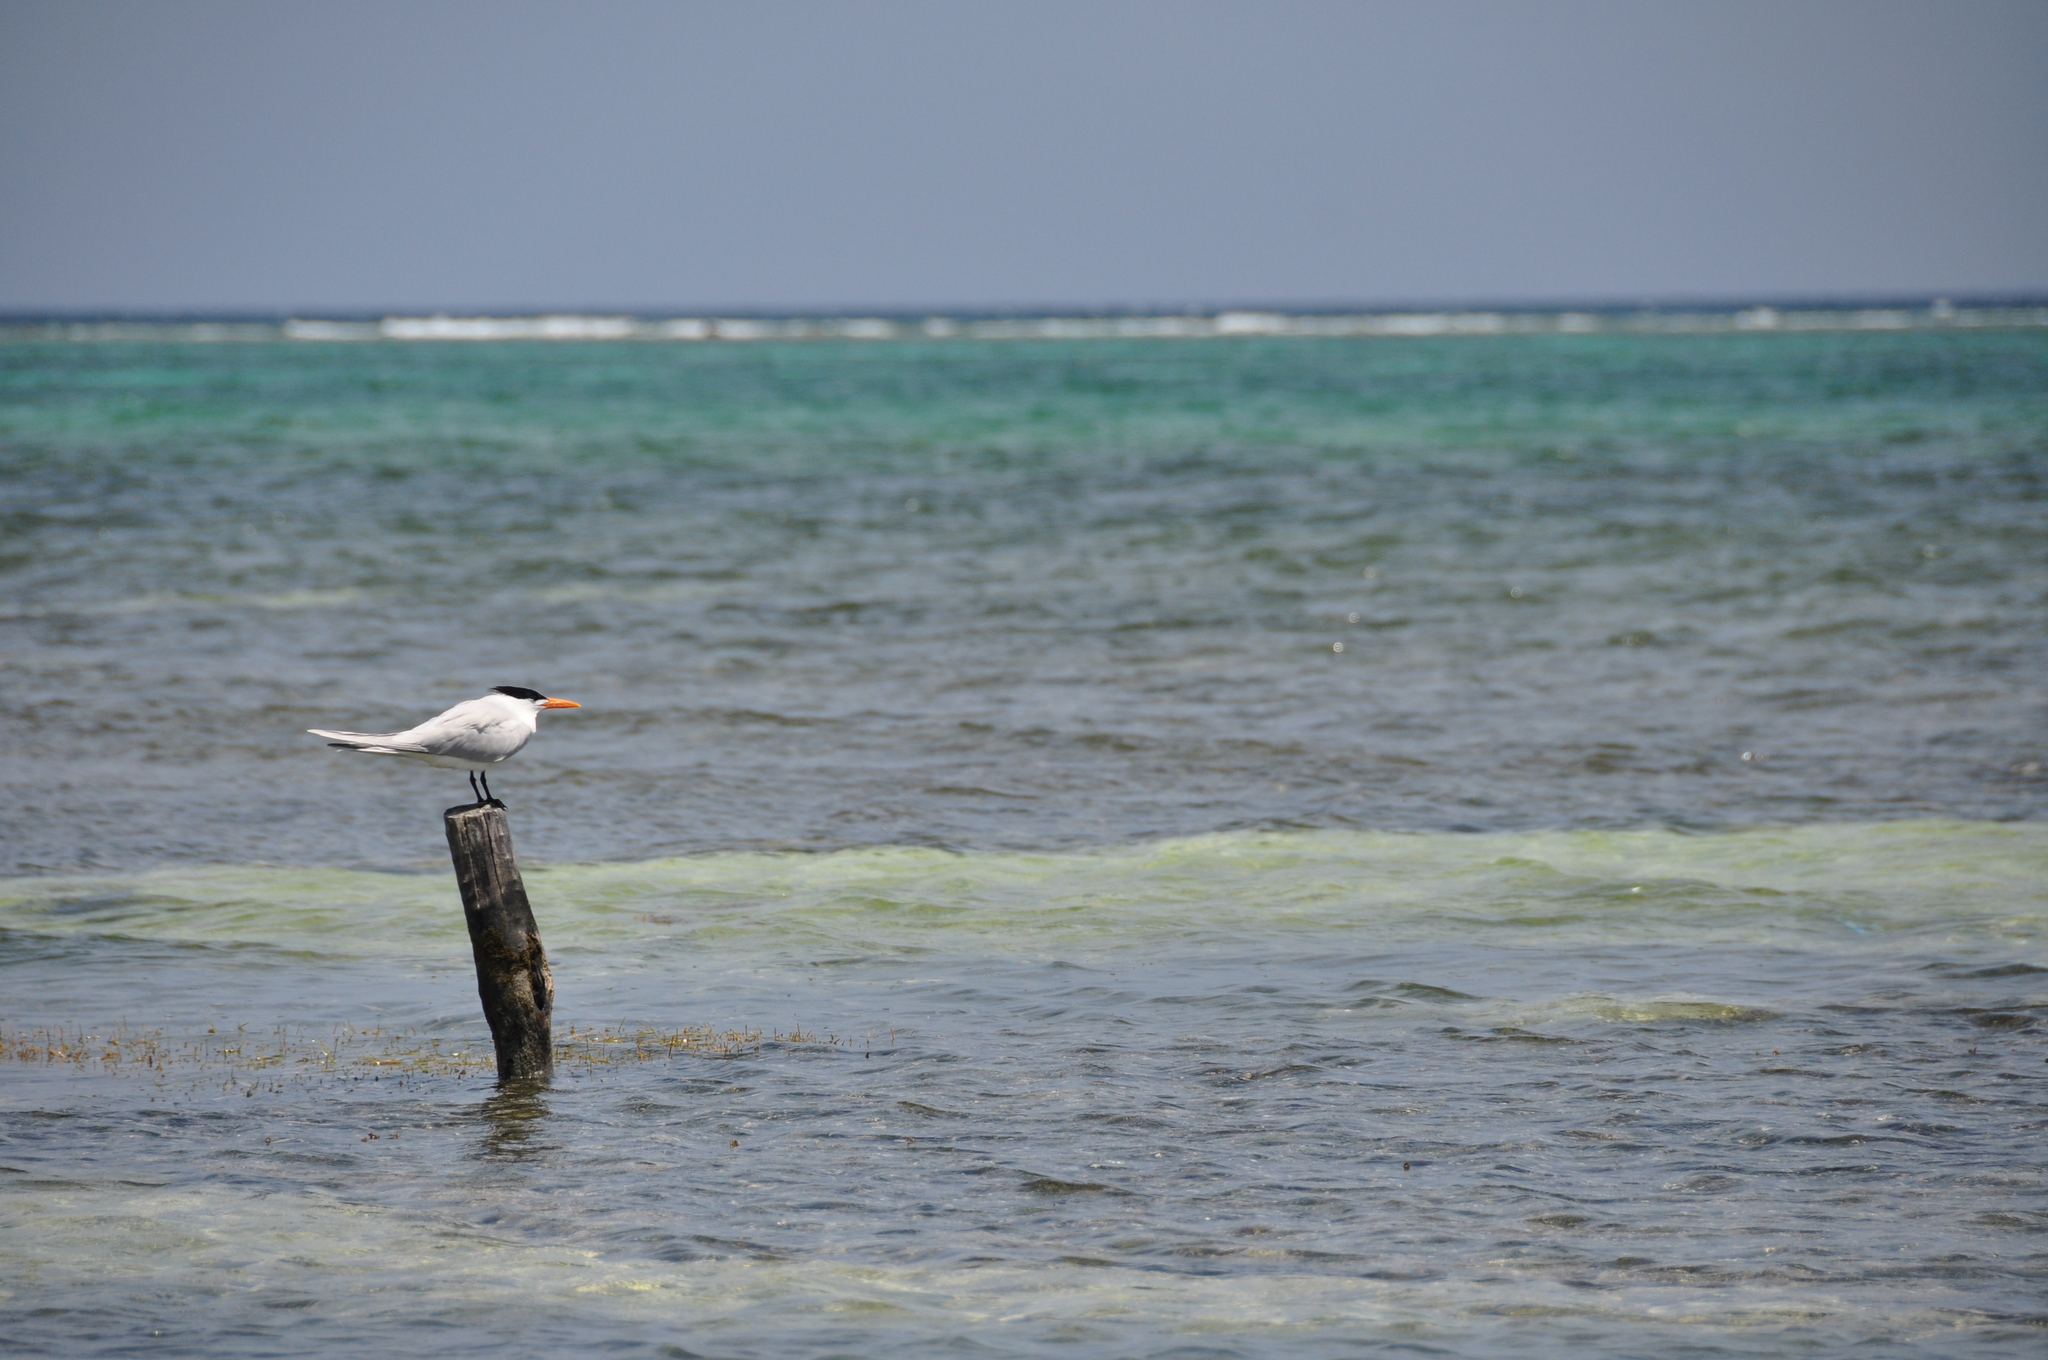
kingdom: Animalia
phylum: Chordata
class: Aves
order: Charadriiformes
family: Laridae
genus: Thalasseus
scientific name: Thalasseus maximus
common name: Royal tern
